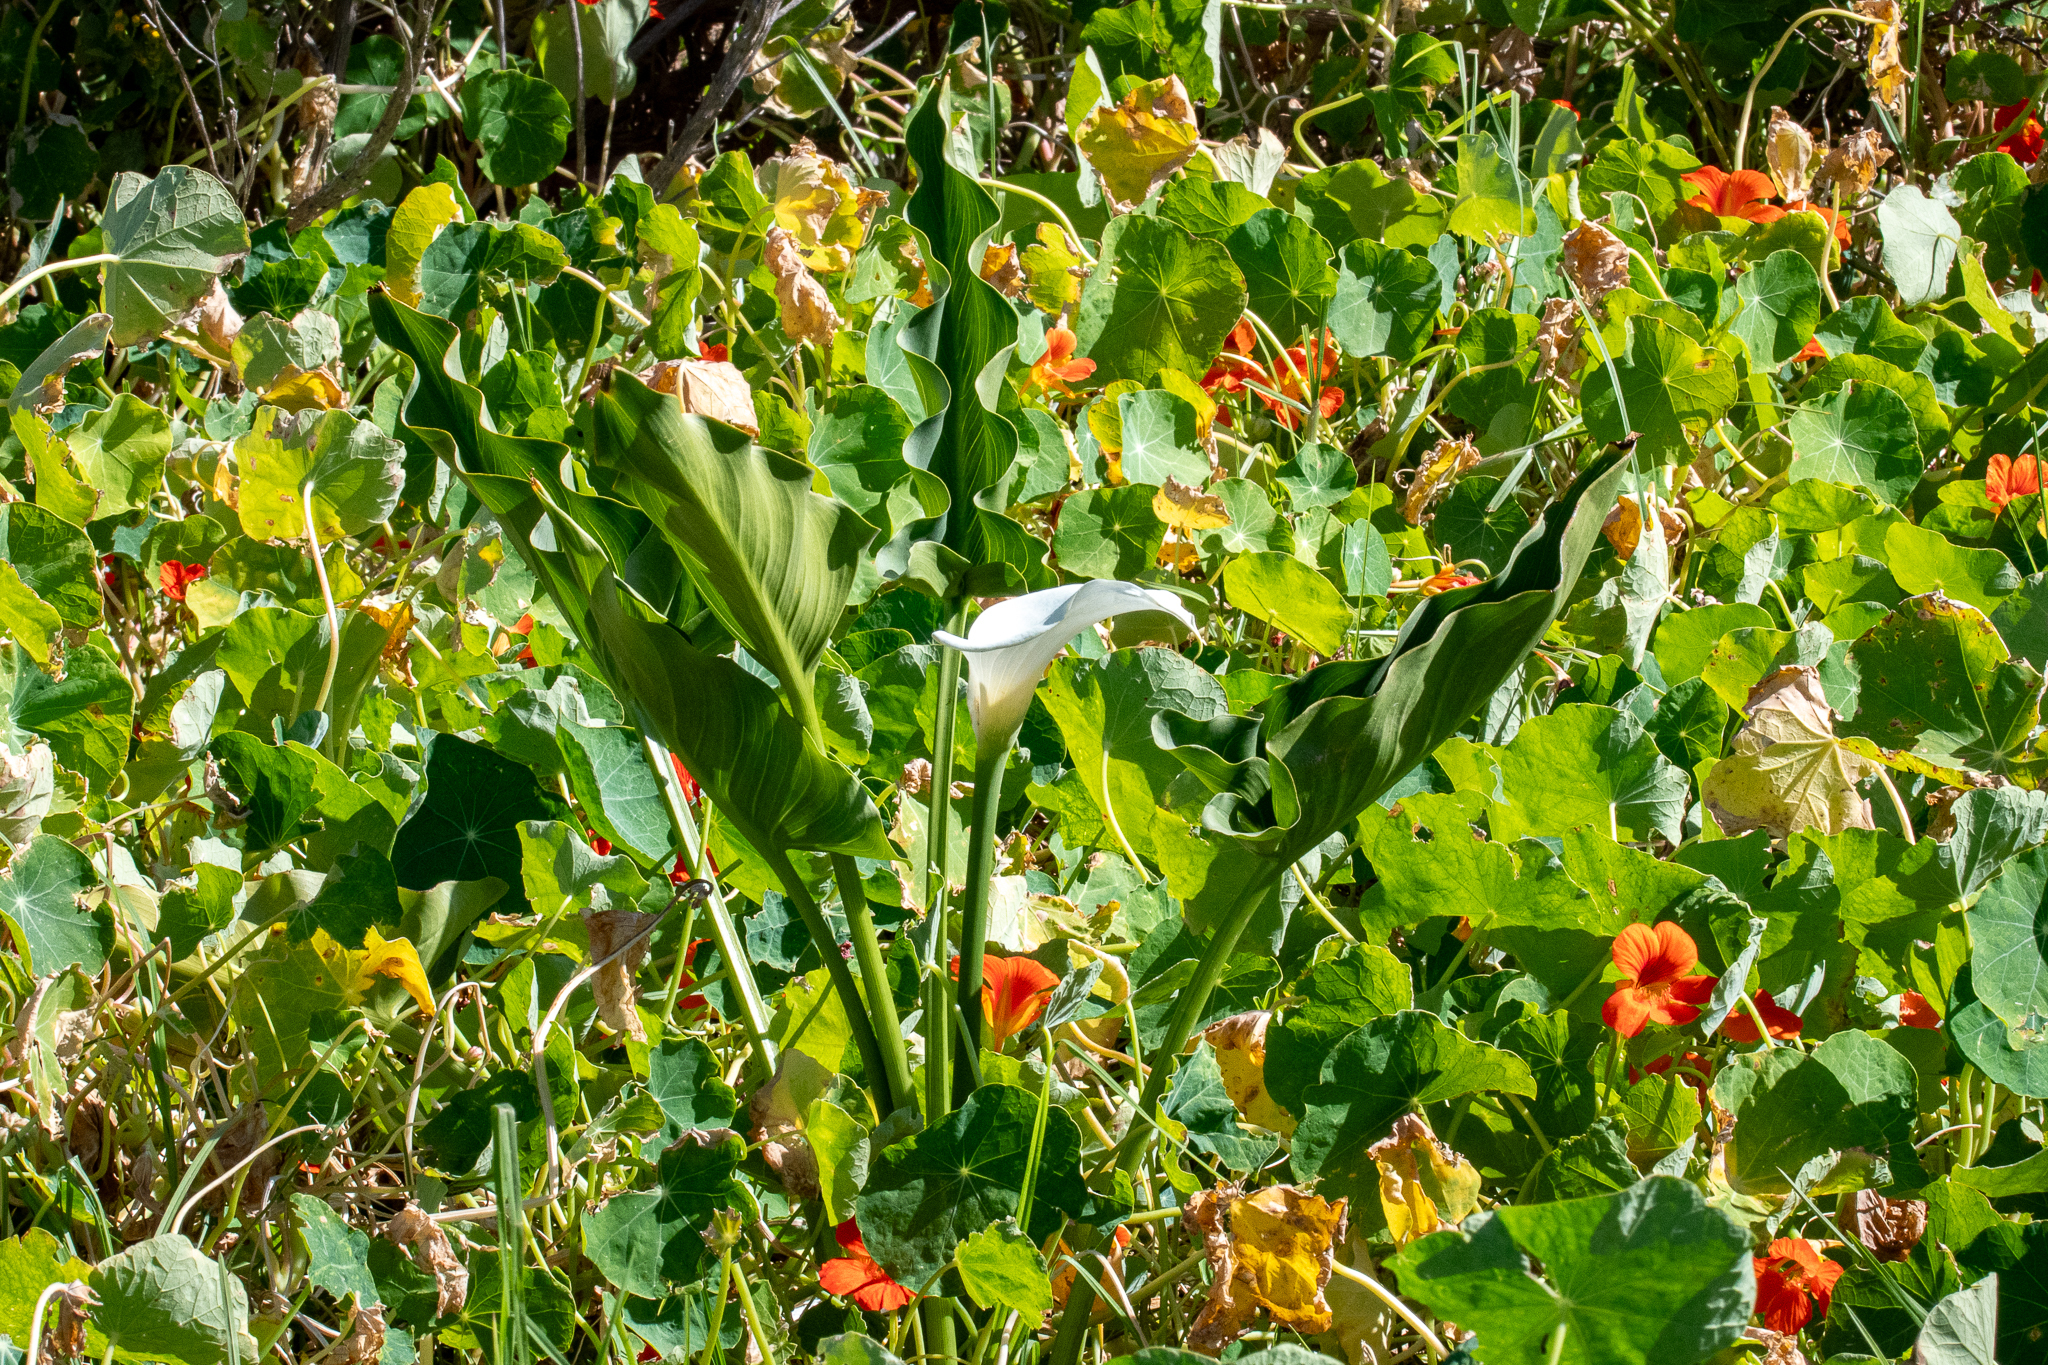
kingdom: Plantae
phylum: Tracheophyta
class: Liliopsida
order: Alismatales
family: Araceae
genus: Zantedeschia
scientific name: Zantedeschia aethiopica
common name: Altar-lily
